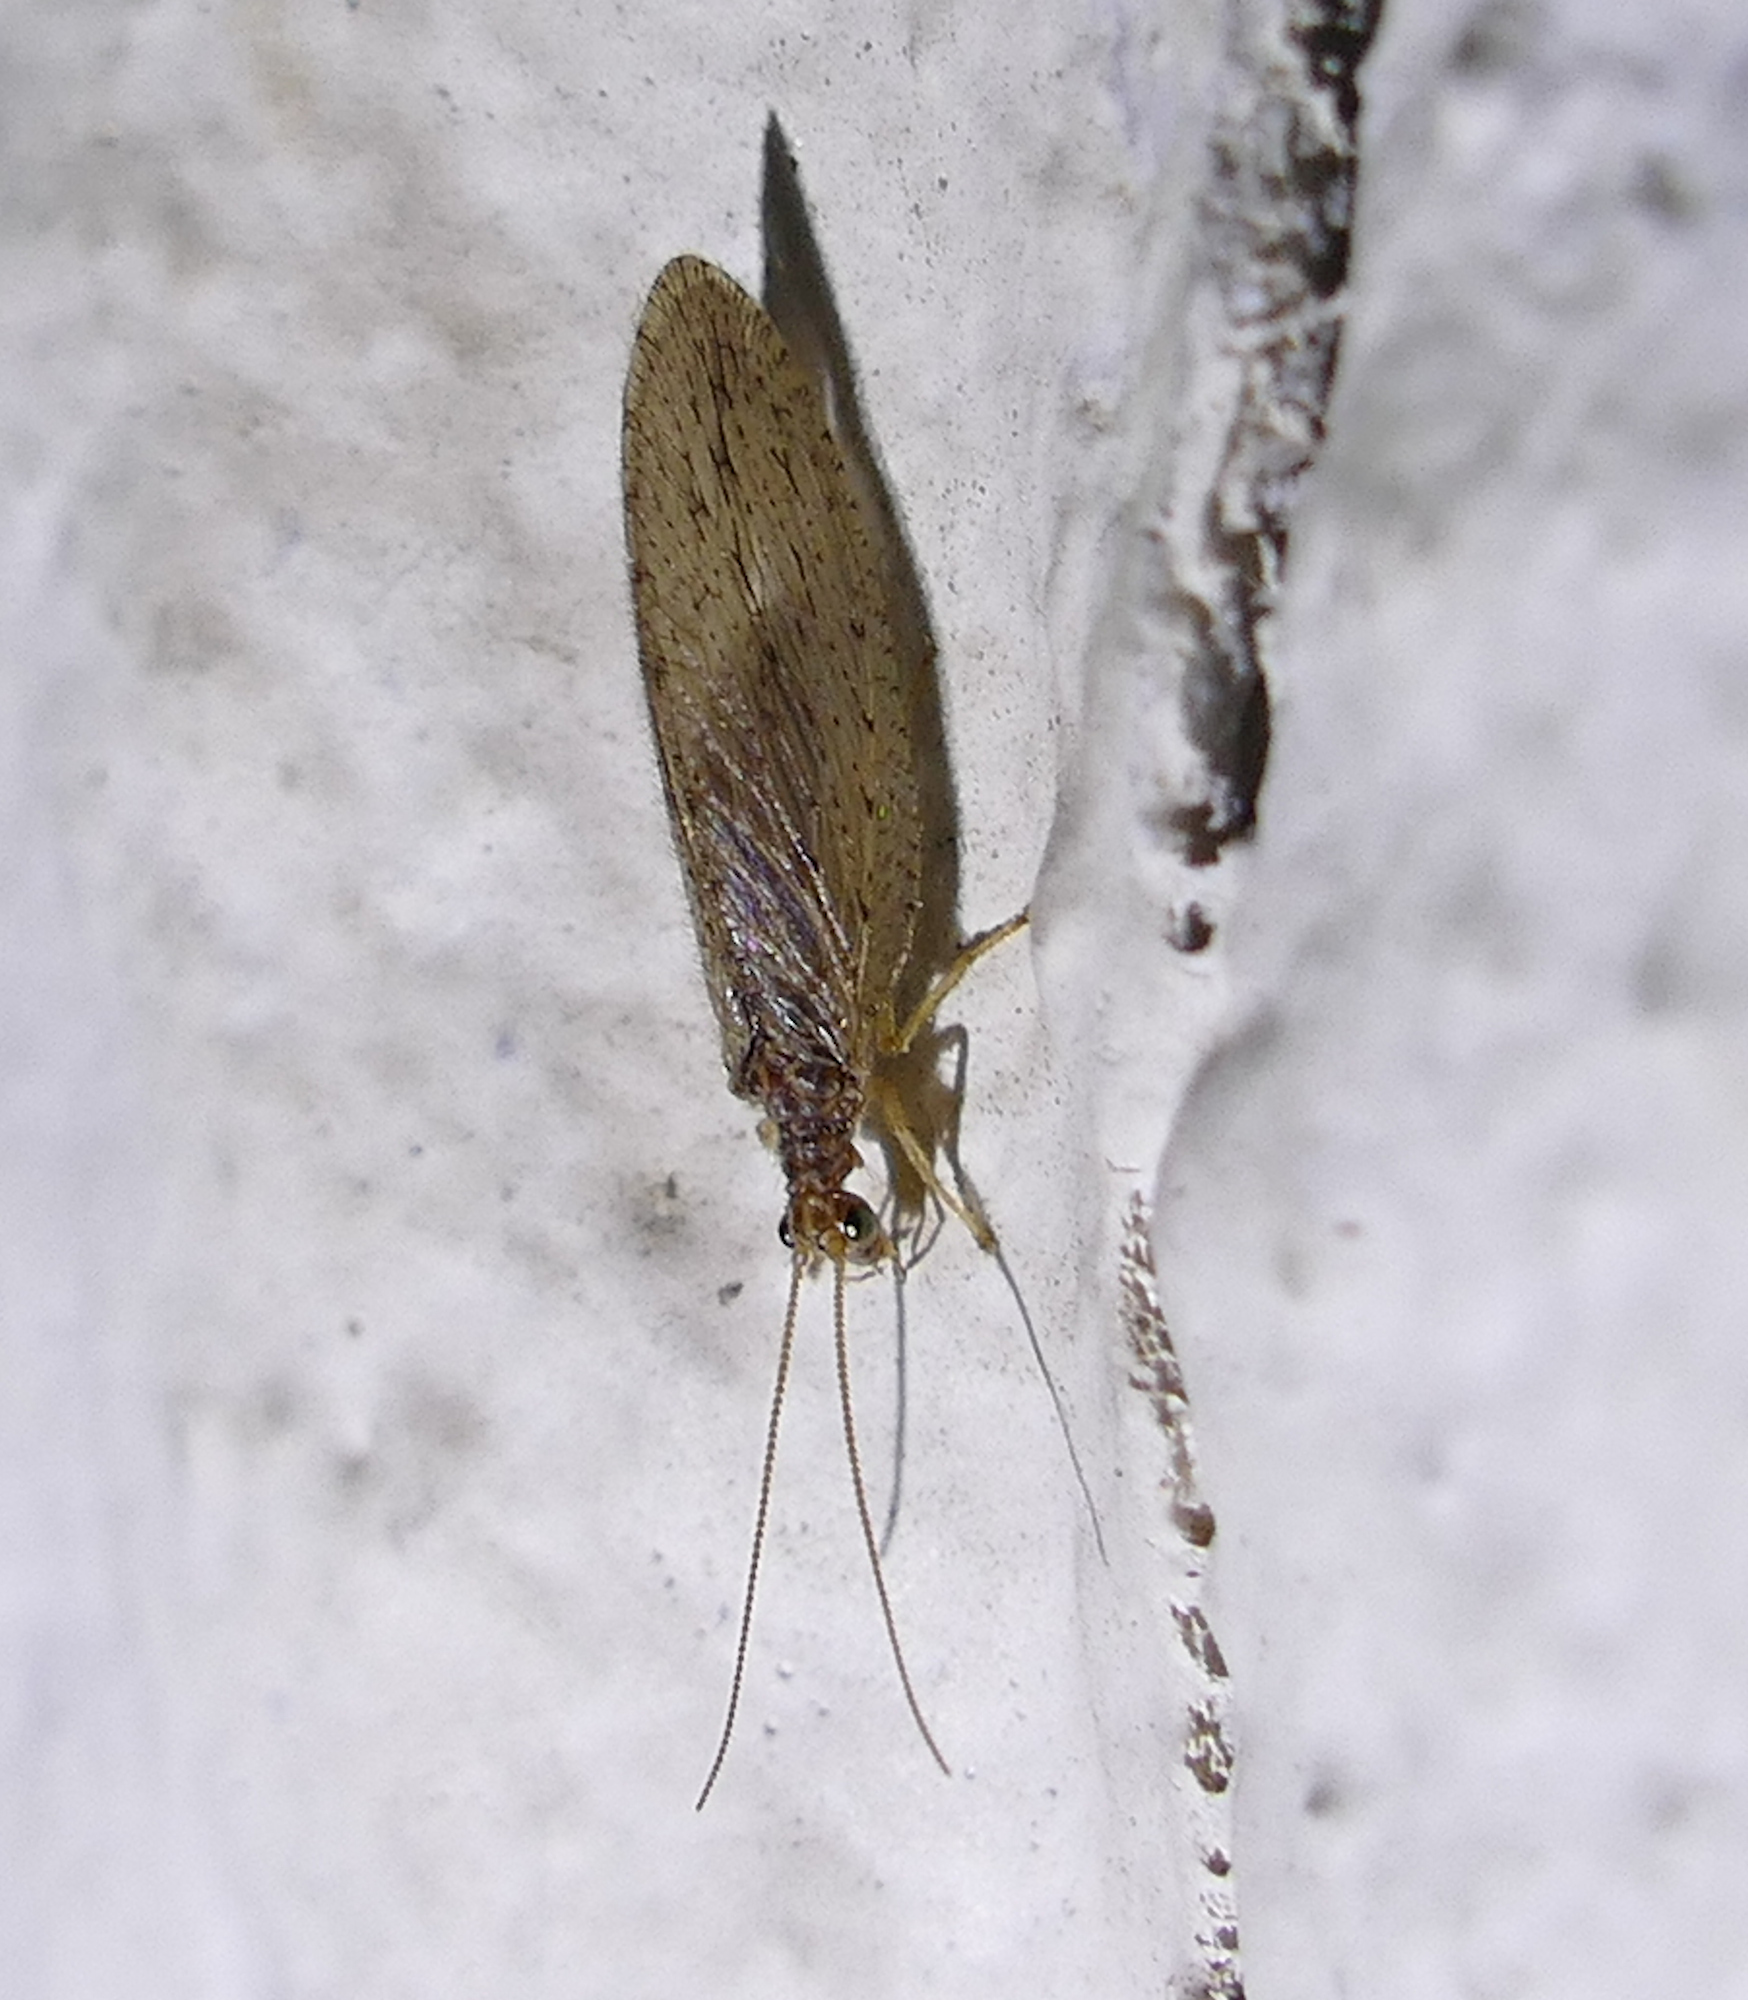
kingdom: Animalia
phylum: Arthropoda
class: Insecta
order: Neuroptera
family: Hemerobiidae
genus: Micromus
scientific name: Micromus subanticus
